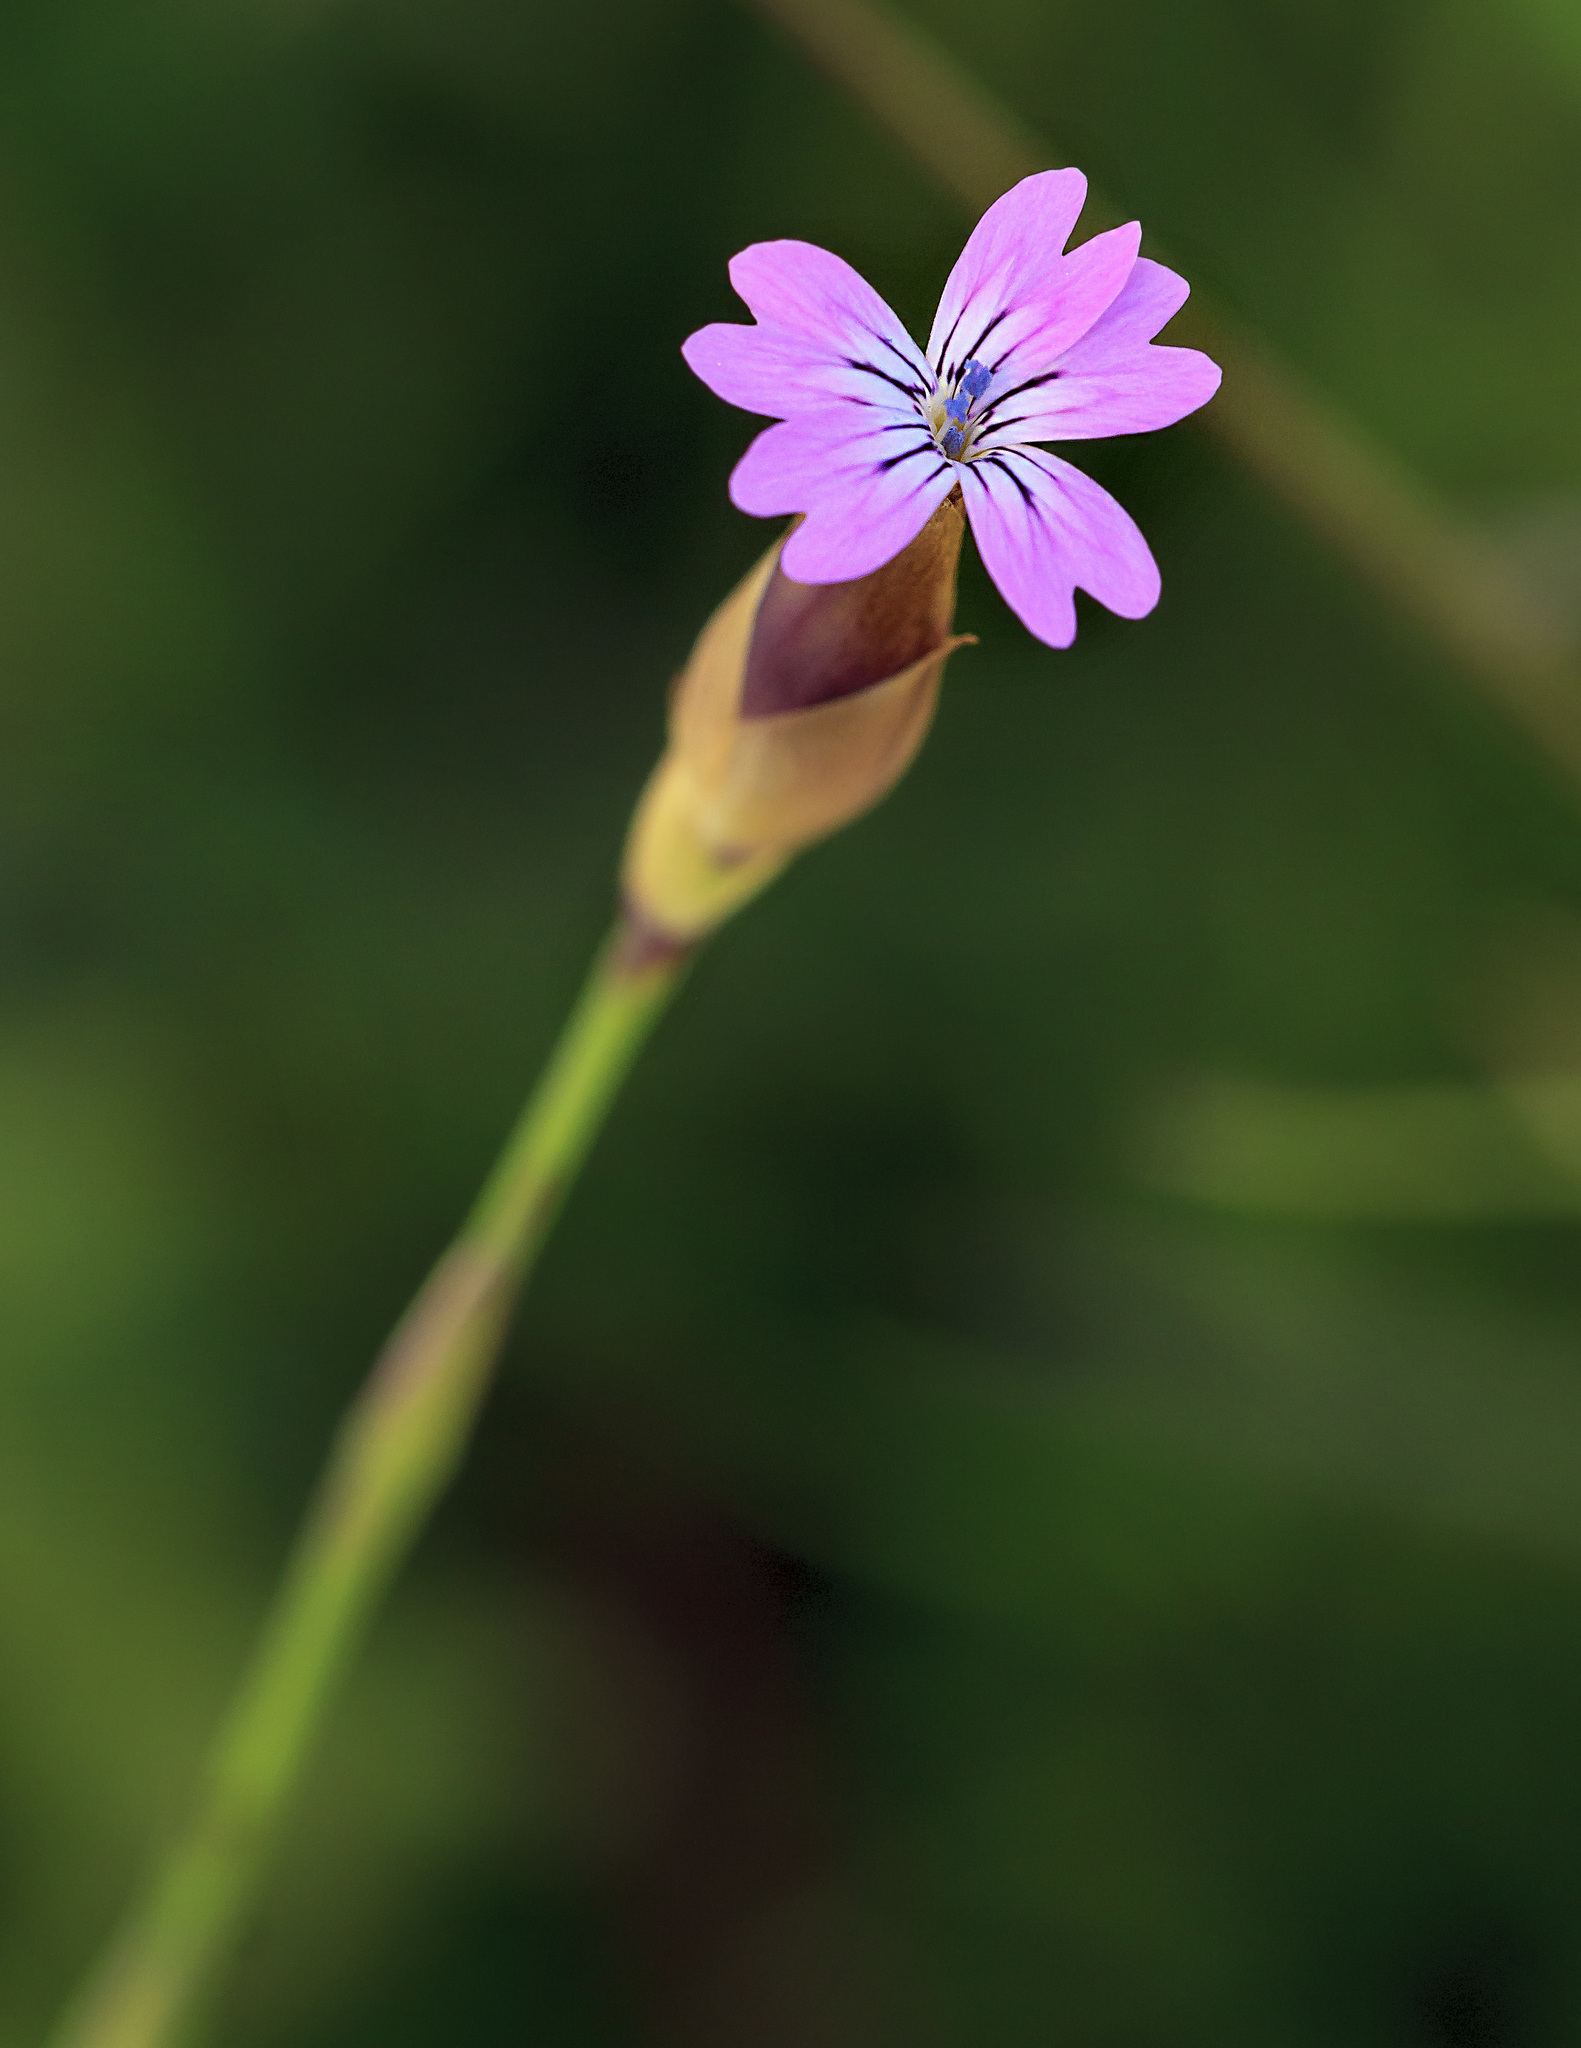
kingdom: Plantae
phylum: Tracheophyta
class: Magnoliopsida
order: Caryophyllales
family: Caryophyllaceae
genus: Petrorhagia
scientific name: Petrorhagia dubia
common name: Hairypink
